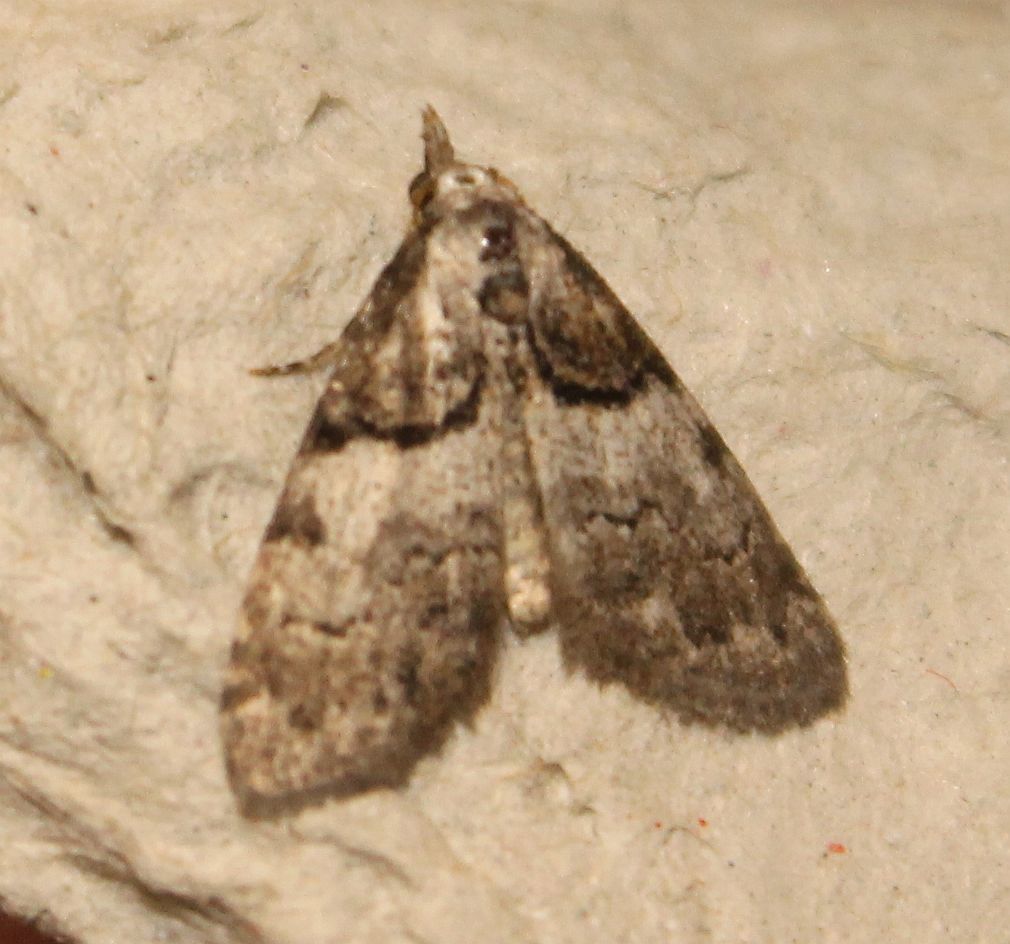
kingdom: Animalia
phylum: Arthropoda
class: Insecta
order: Lepidoptera
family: Nolidae
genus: Nola
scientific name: Nola cucullatella
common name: Short-cloaked moth
